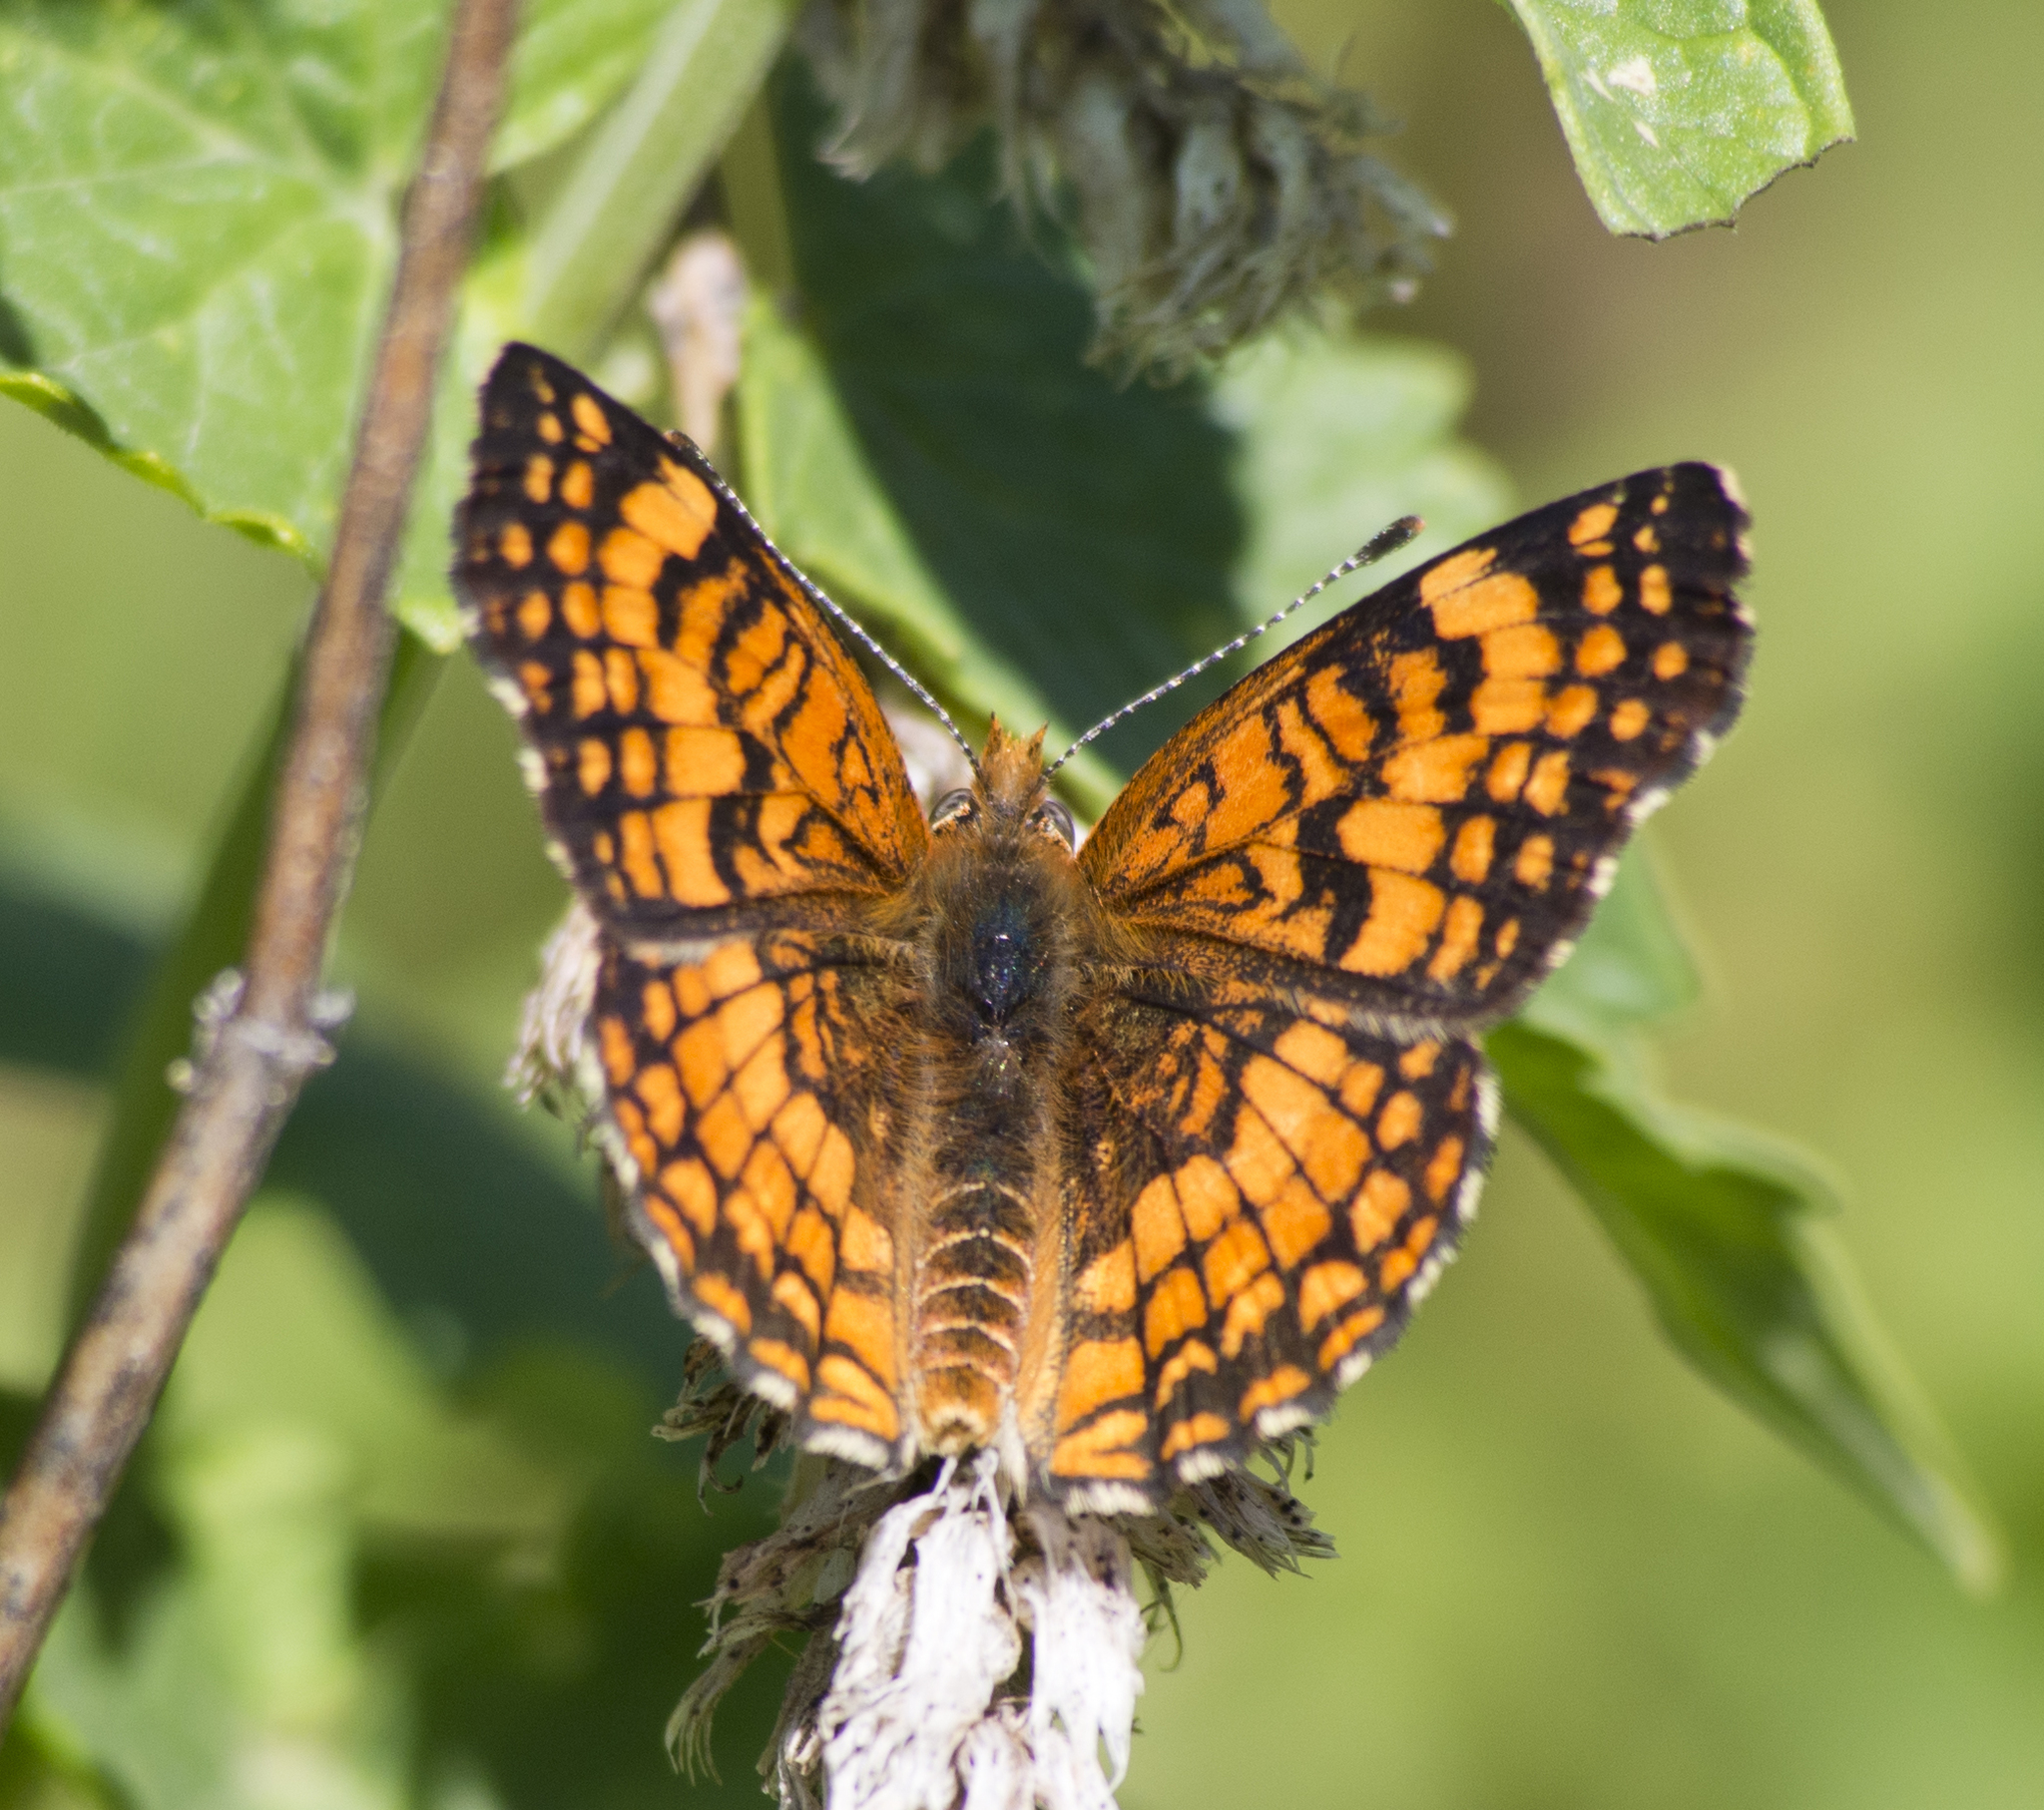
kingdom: Animalia
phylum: Arthropoda
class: Insecta
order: Lepidoptera
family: Nymphalidae
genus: Chlosyne
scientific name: Chlosyne palla
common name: Northern checkerspot
